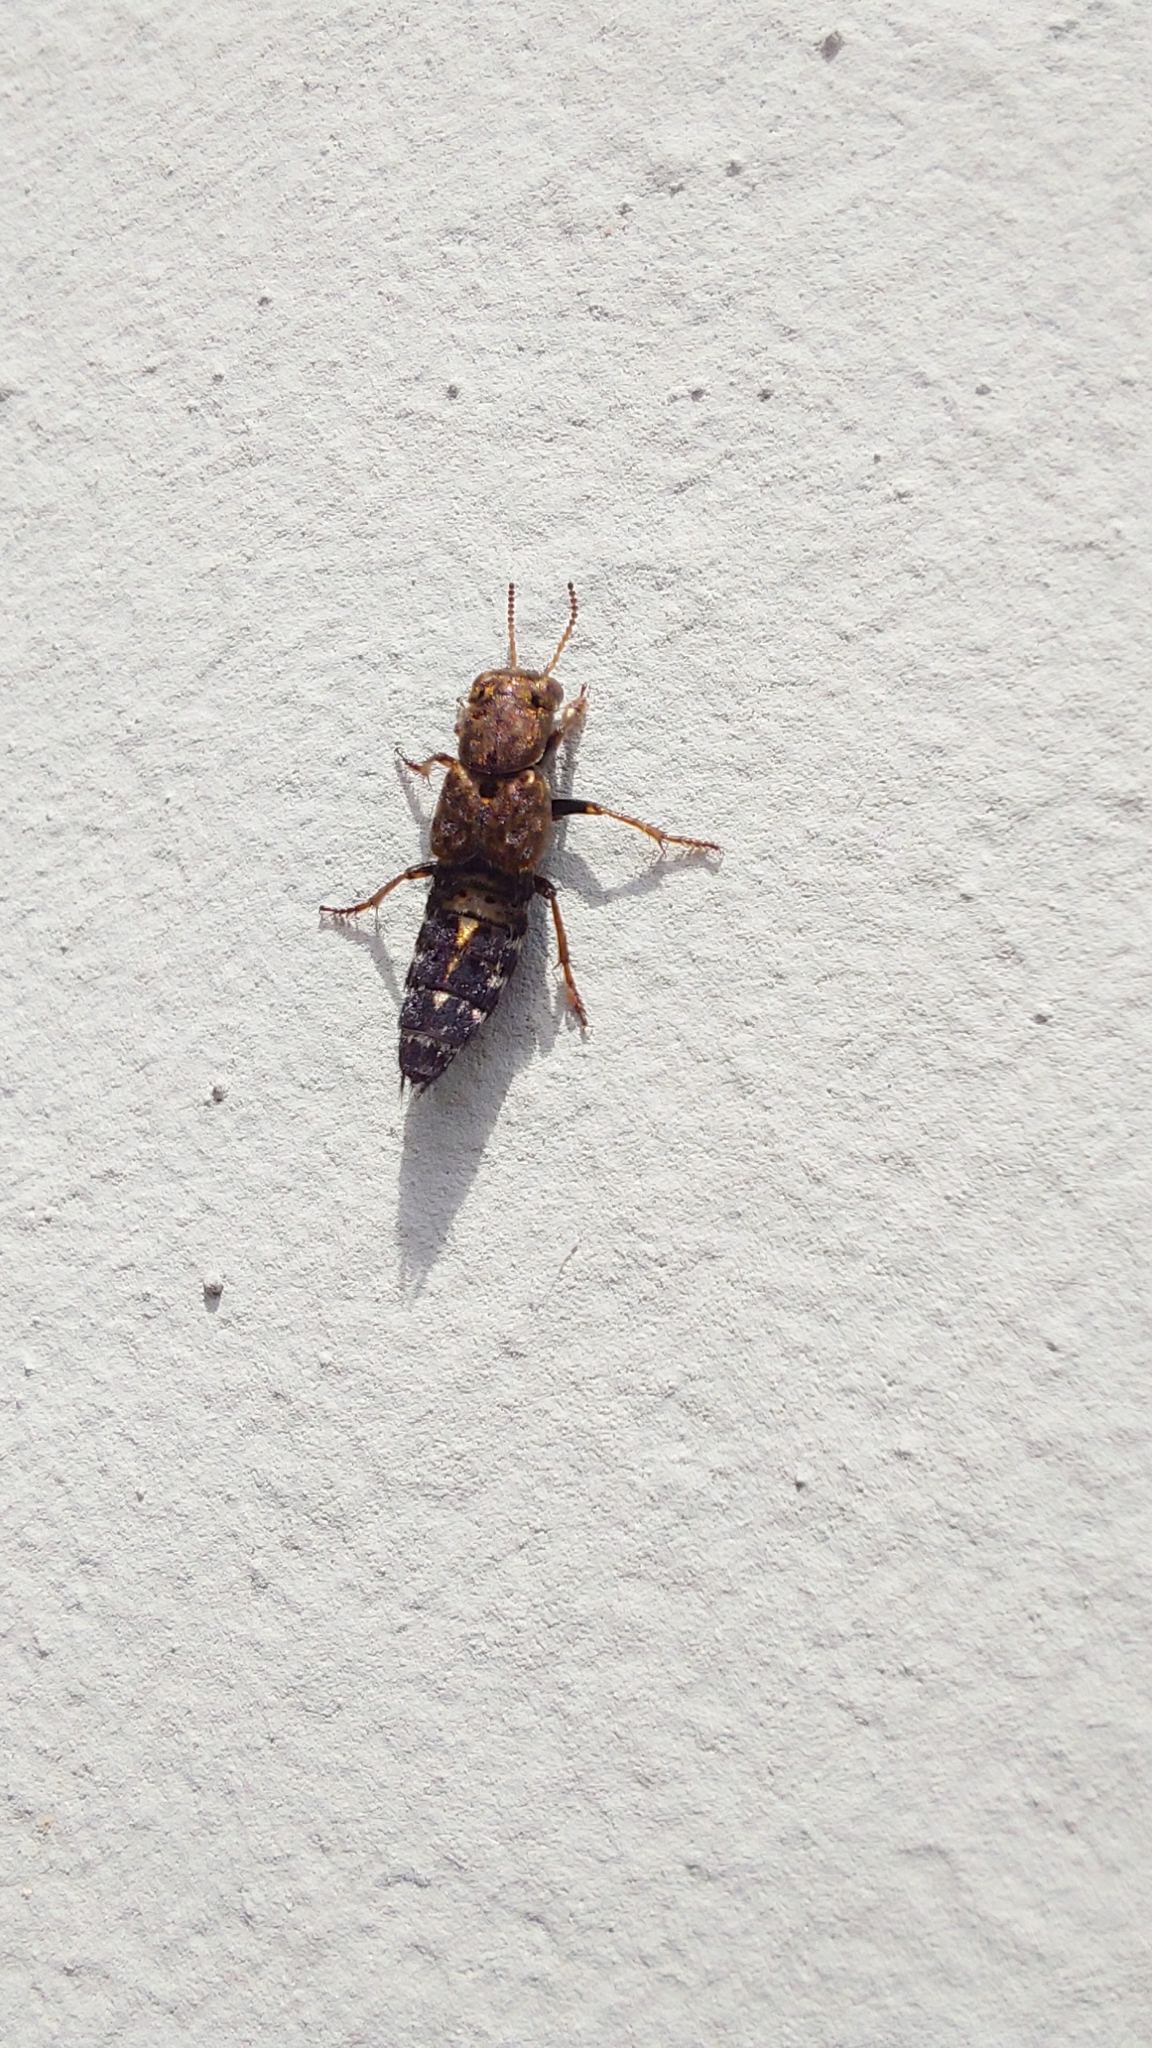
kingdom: Animalia
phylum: Arthropoda
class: Insecta
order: Coleoptera
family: Staphylinidae
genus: Ontholestes
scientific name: Ontholestes haroldi
